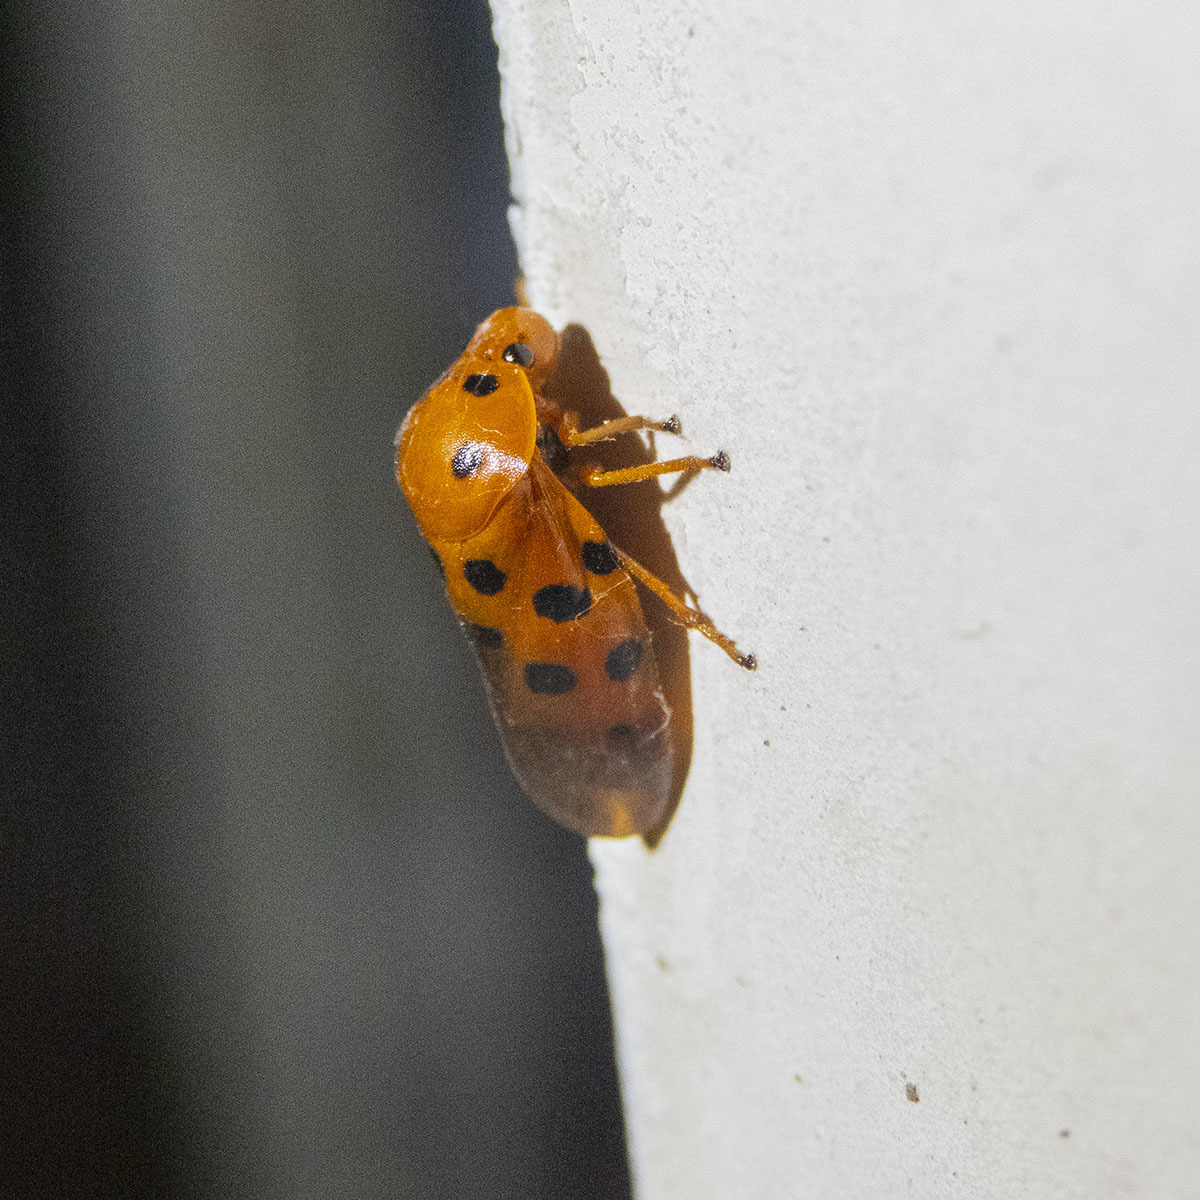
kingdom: Animalia
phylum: Arthropoda
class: Insecta
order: Hemiptera
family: Cercopidae
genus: Cosmoscarta
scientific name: Cosmoscarta dorsimacula
